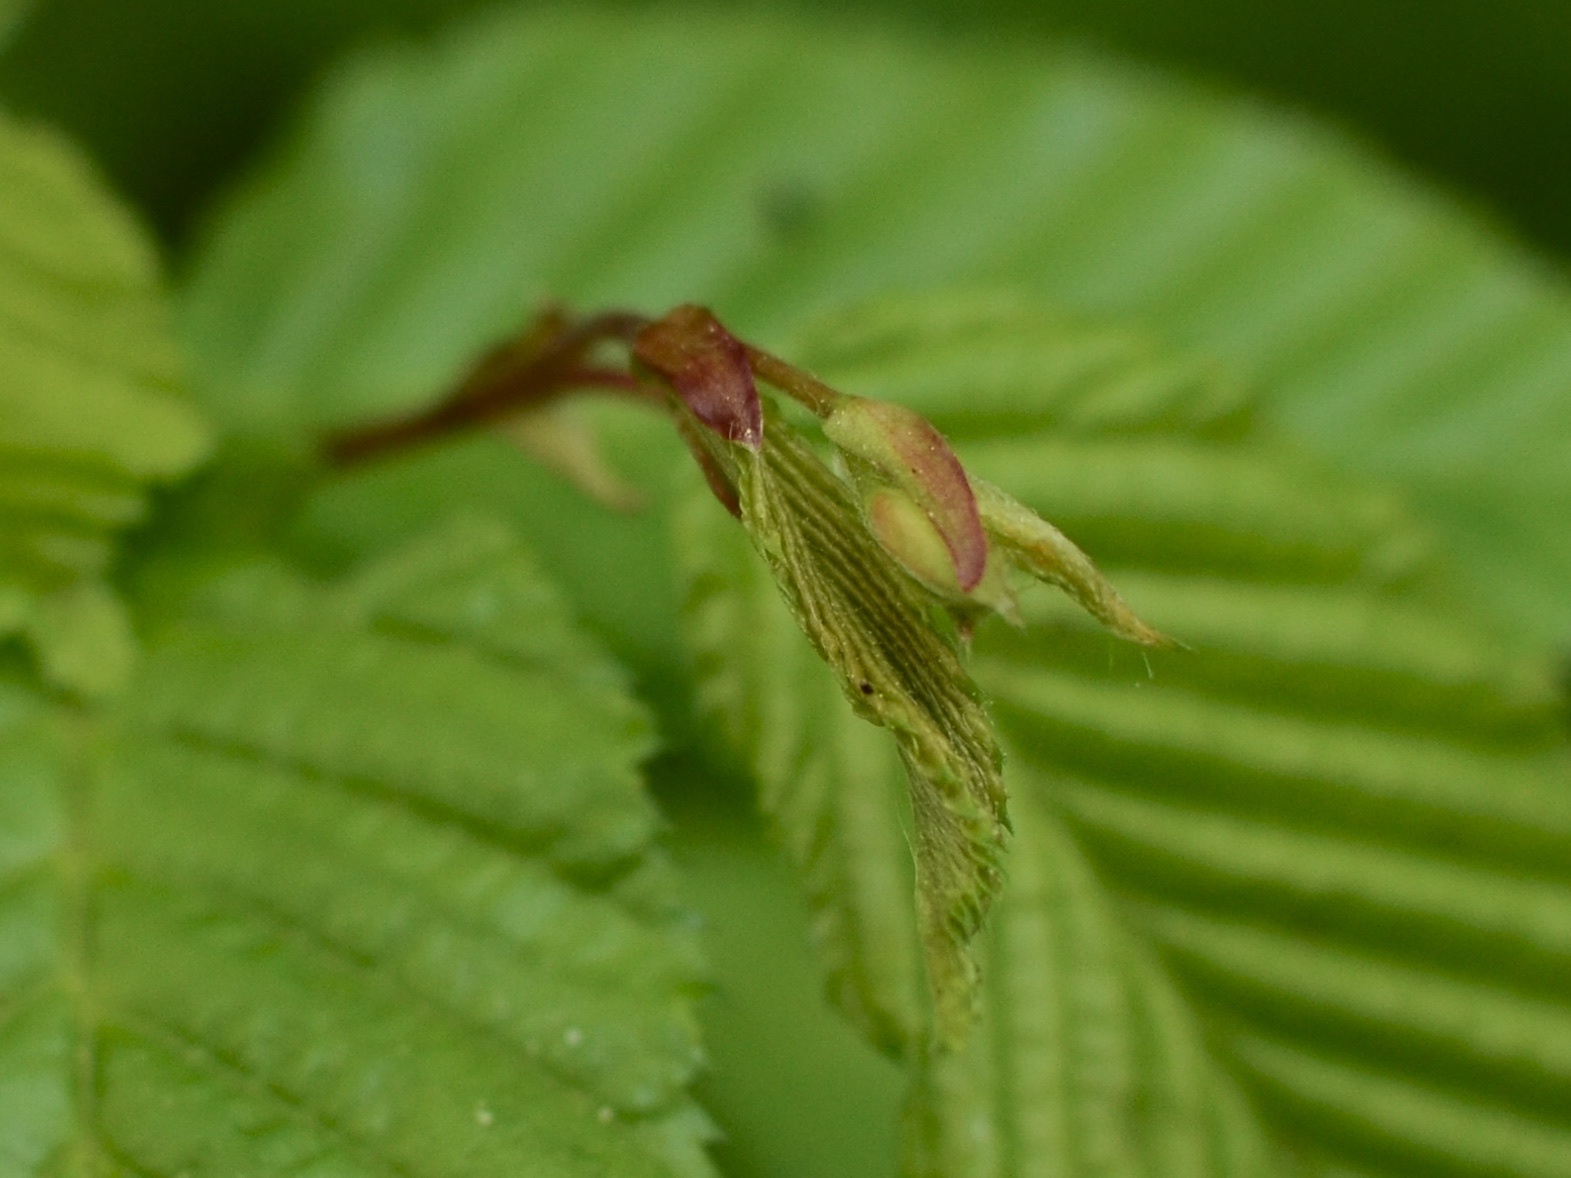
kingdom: Plantae
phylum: Tracheophyta
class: Magnoliopsida
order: Fagales
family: Betulaceae
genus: Carpinus
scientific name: Carpinus betulus
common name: Hornbeam
